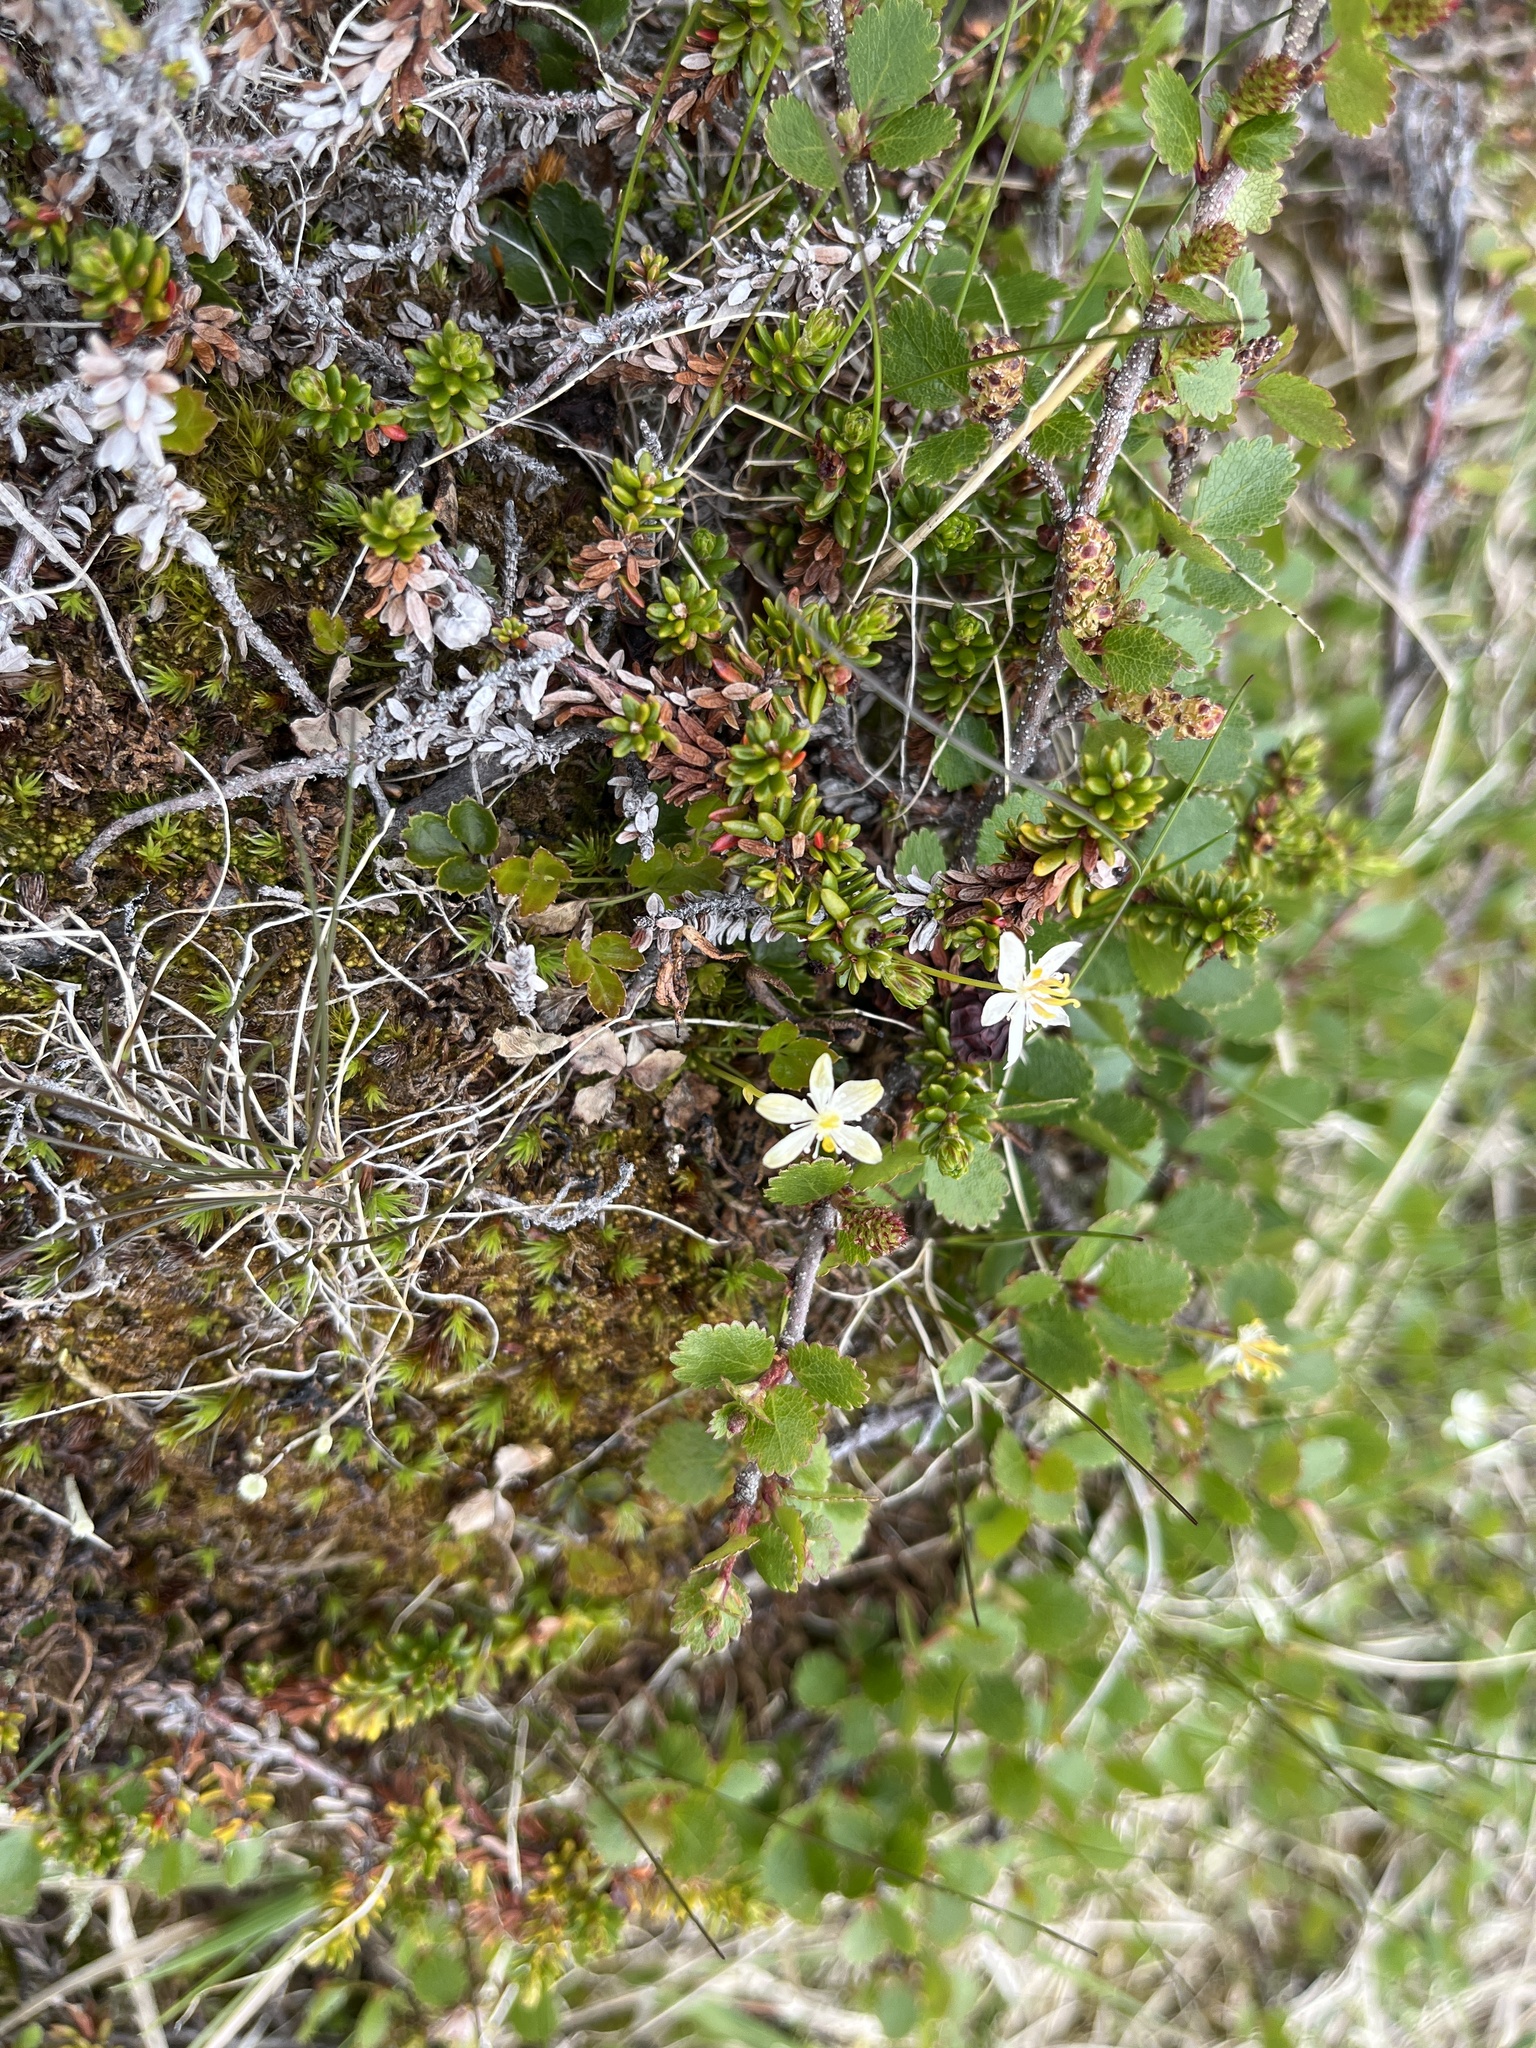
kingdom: Plantae
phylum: Tracheophyta
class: Magnoliopsida
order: Ranunculales
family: Ranunculaceae
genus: Coptis
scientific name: Coptis trifolia
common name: Canker-root
